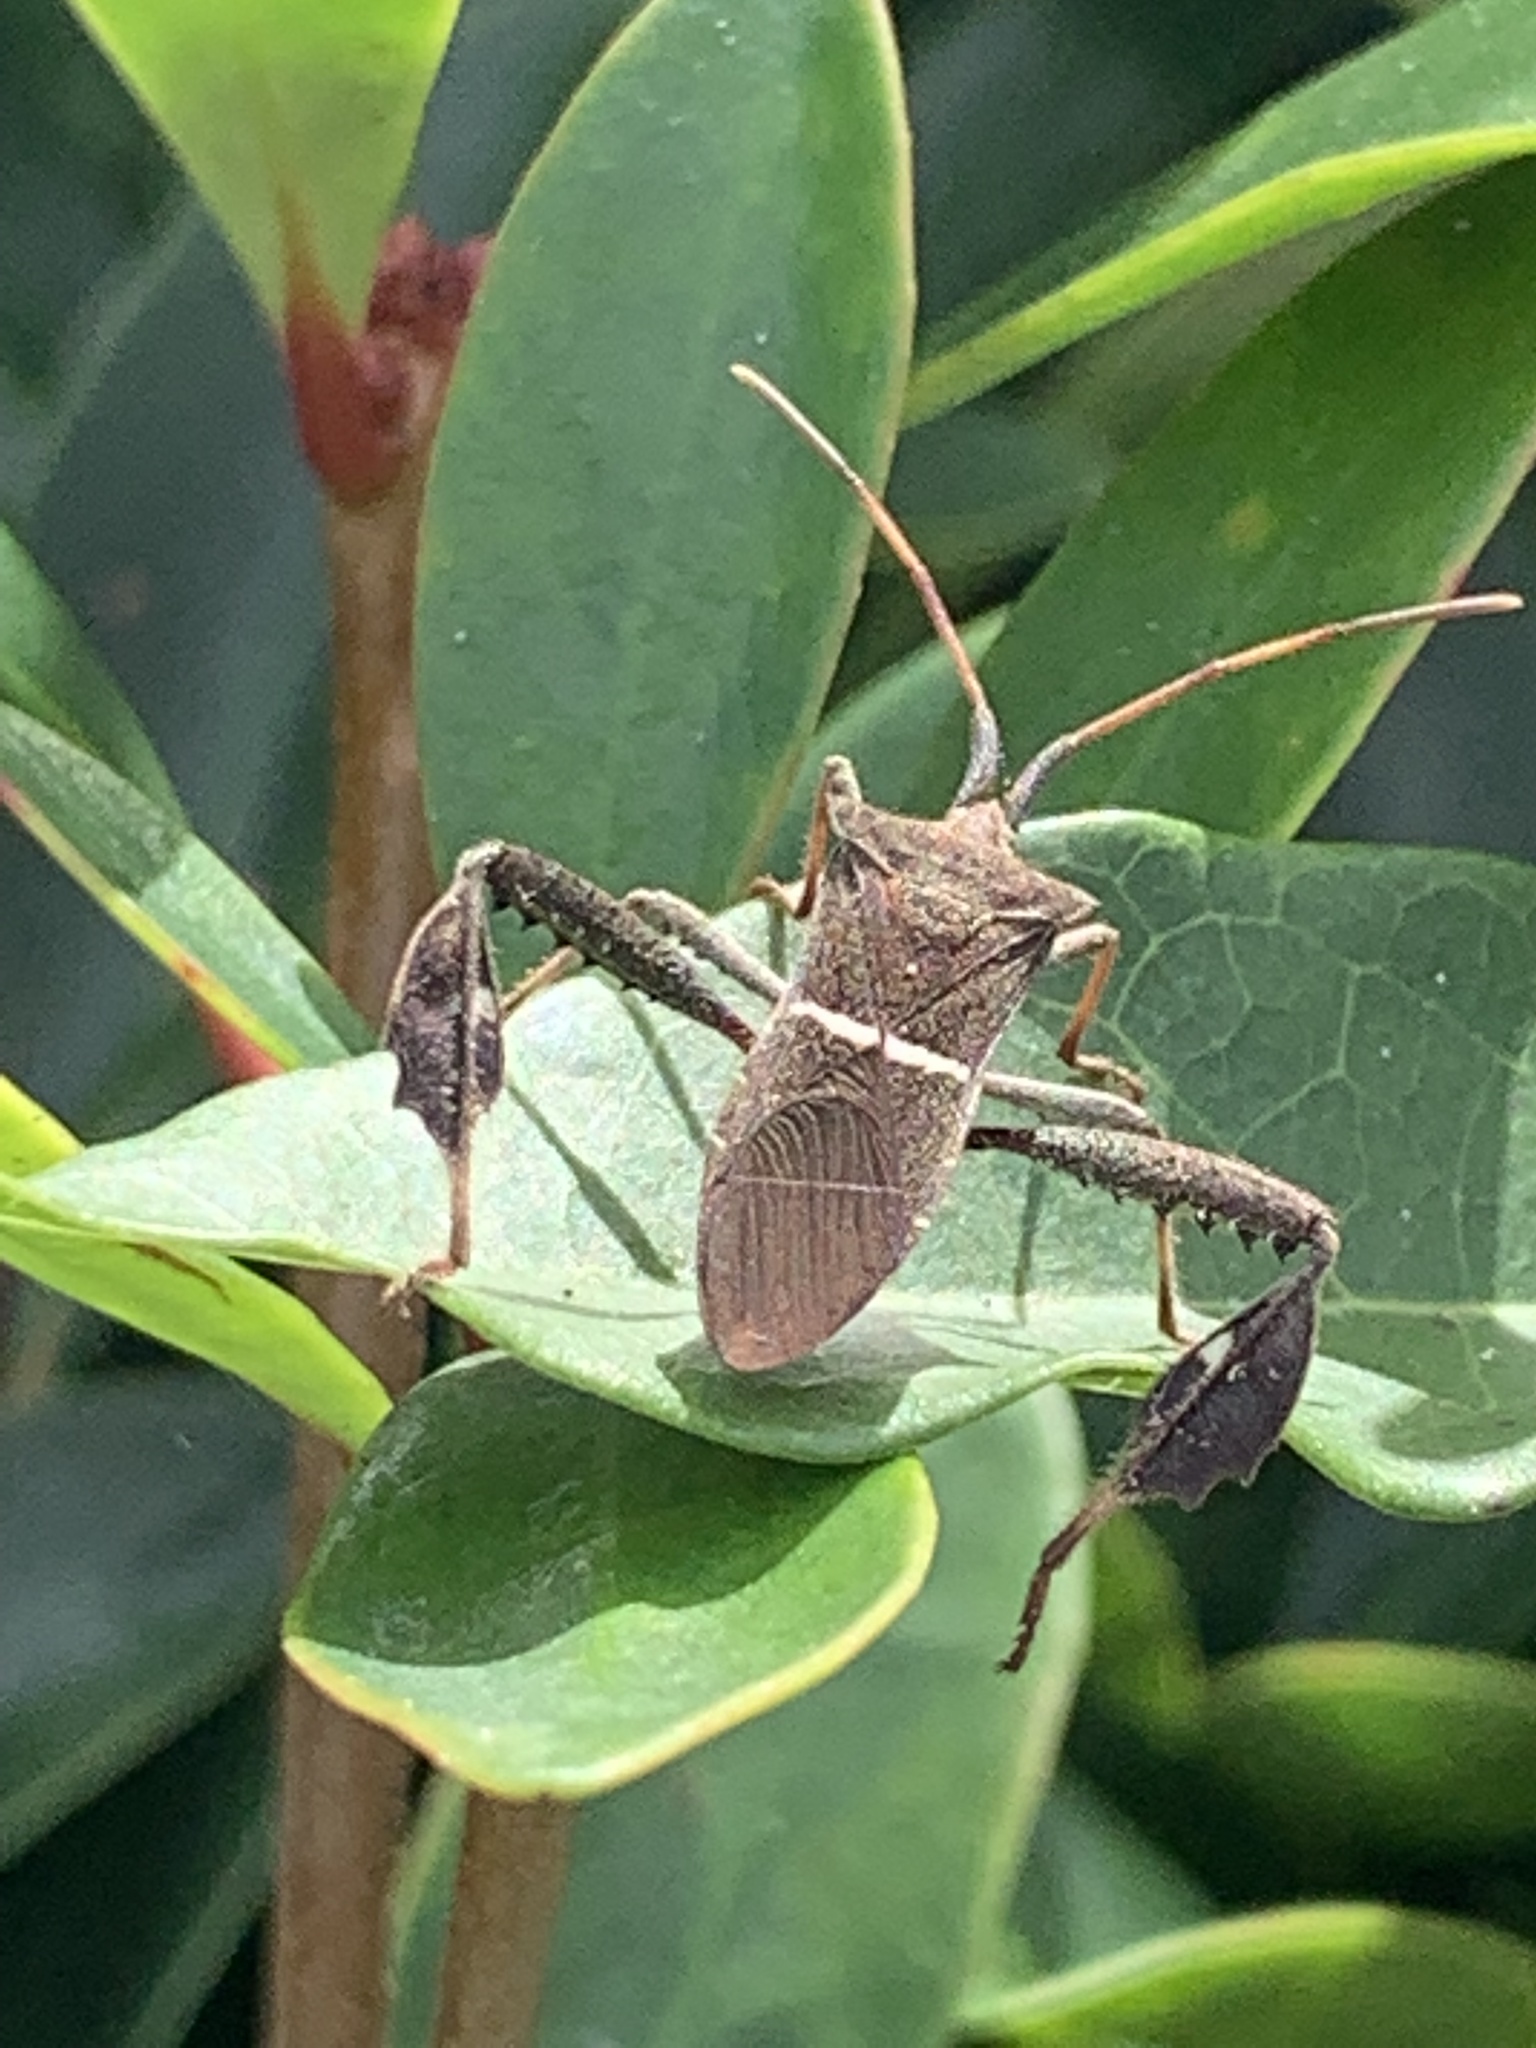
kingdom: Animalia
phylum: Arthropoda
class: Insecta
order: Hemiptera
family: Coreidae
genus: Leptoglossus
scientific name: Leptoglossus phyllopus
